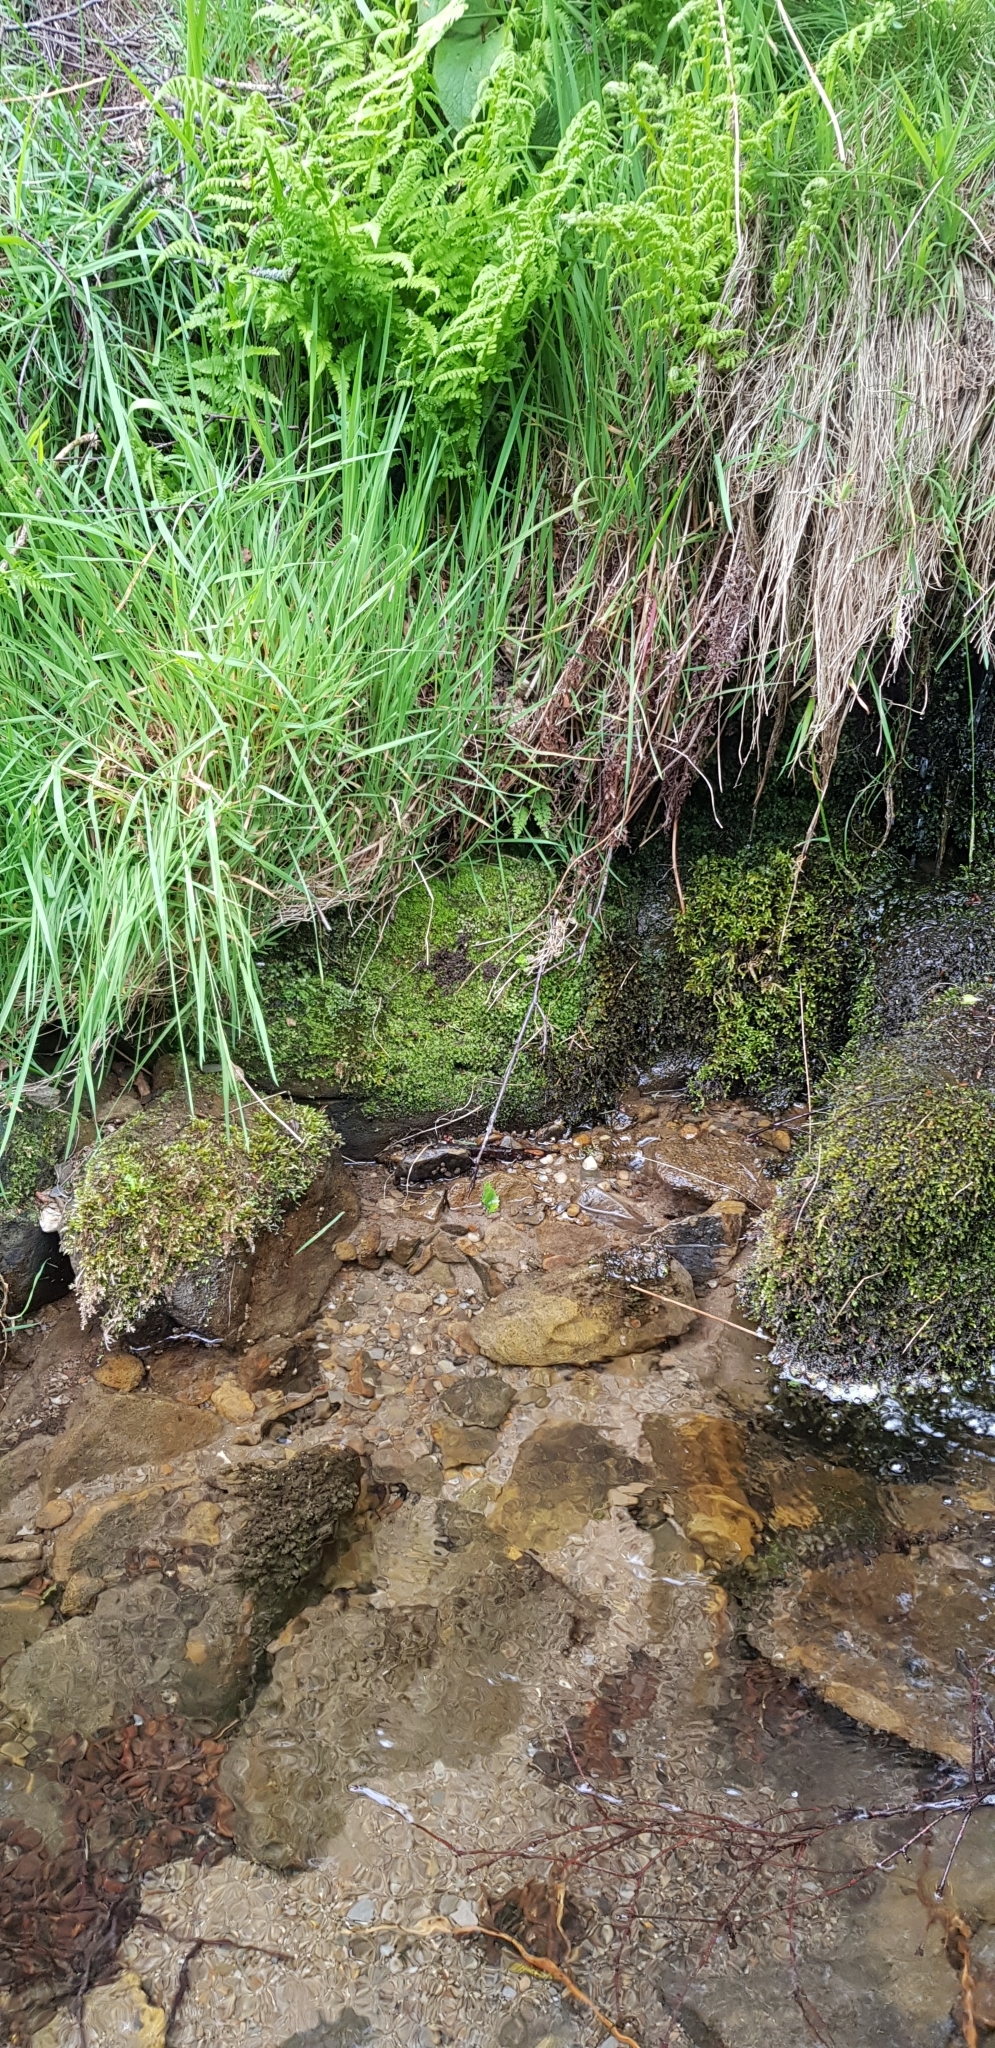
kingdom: Plantae
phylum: Bryophyta
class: Bryopsida
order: Dicranales
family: Aongstroemiaceae
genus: Dichodontium
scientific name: Dichodontium pellucidum
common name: Transparent fork moss
